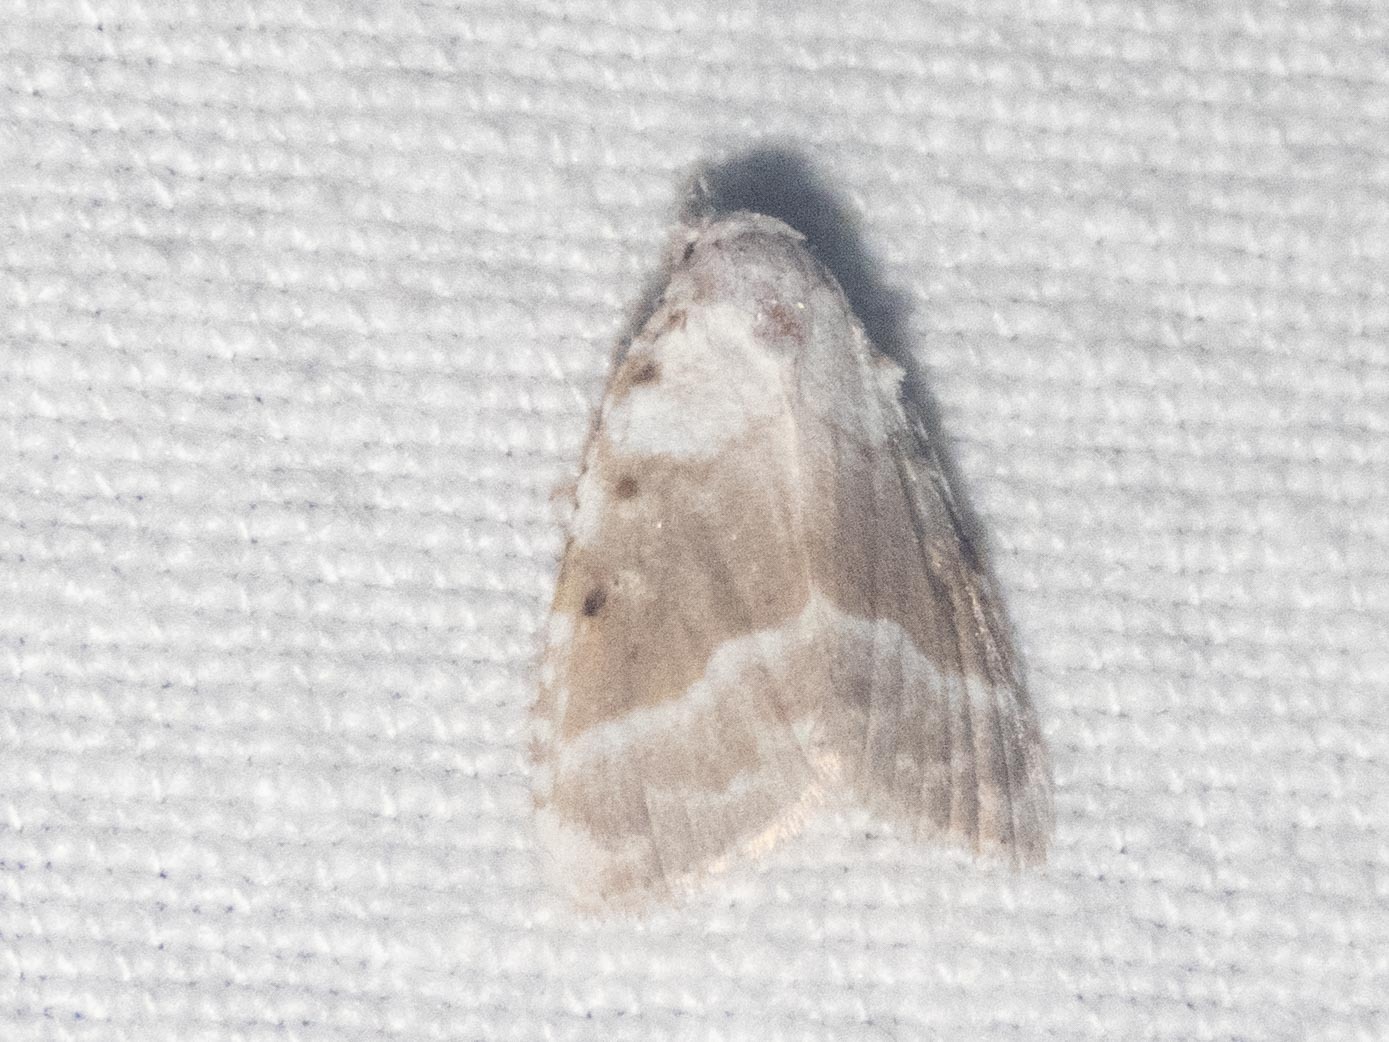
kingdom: Animalia
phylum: Arthropoda
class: Insecta
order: Lepidoptera
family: Nolidae
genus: Meganola
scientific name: Meganola albula
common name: Kent black arches
